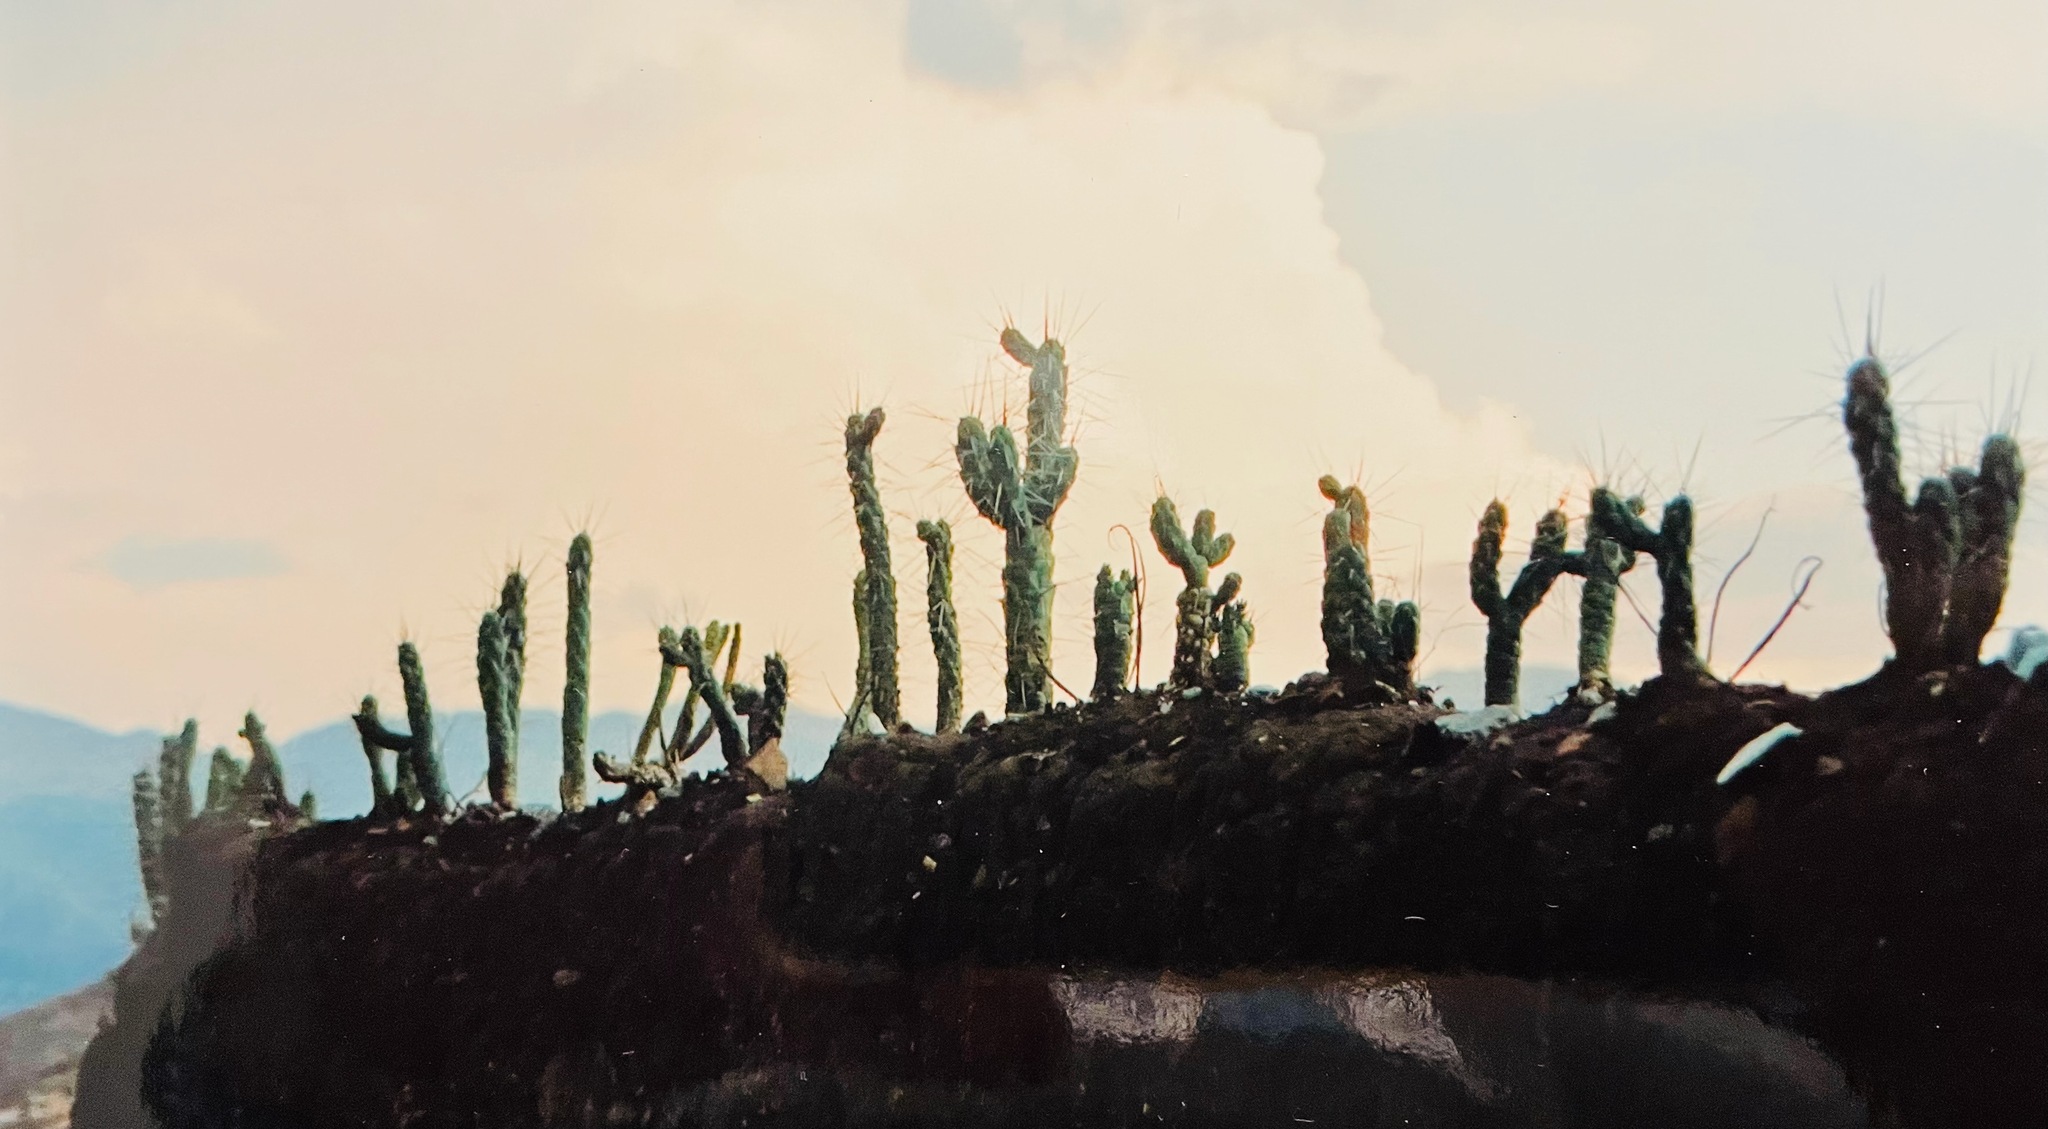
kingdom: Plantae
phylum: Tracheophyta
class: Magnoliopsida
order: Caryophyllales
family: Cactaceae
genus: Austrocylindropuntia
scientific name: Austrocylindropuntia subulata
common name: Eve's needle cactus
